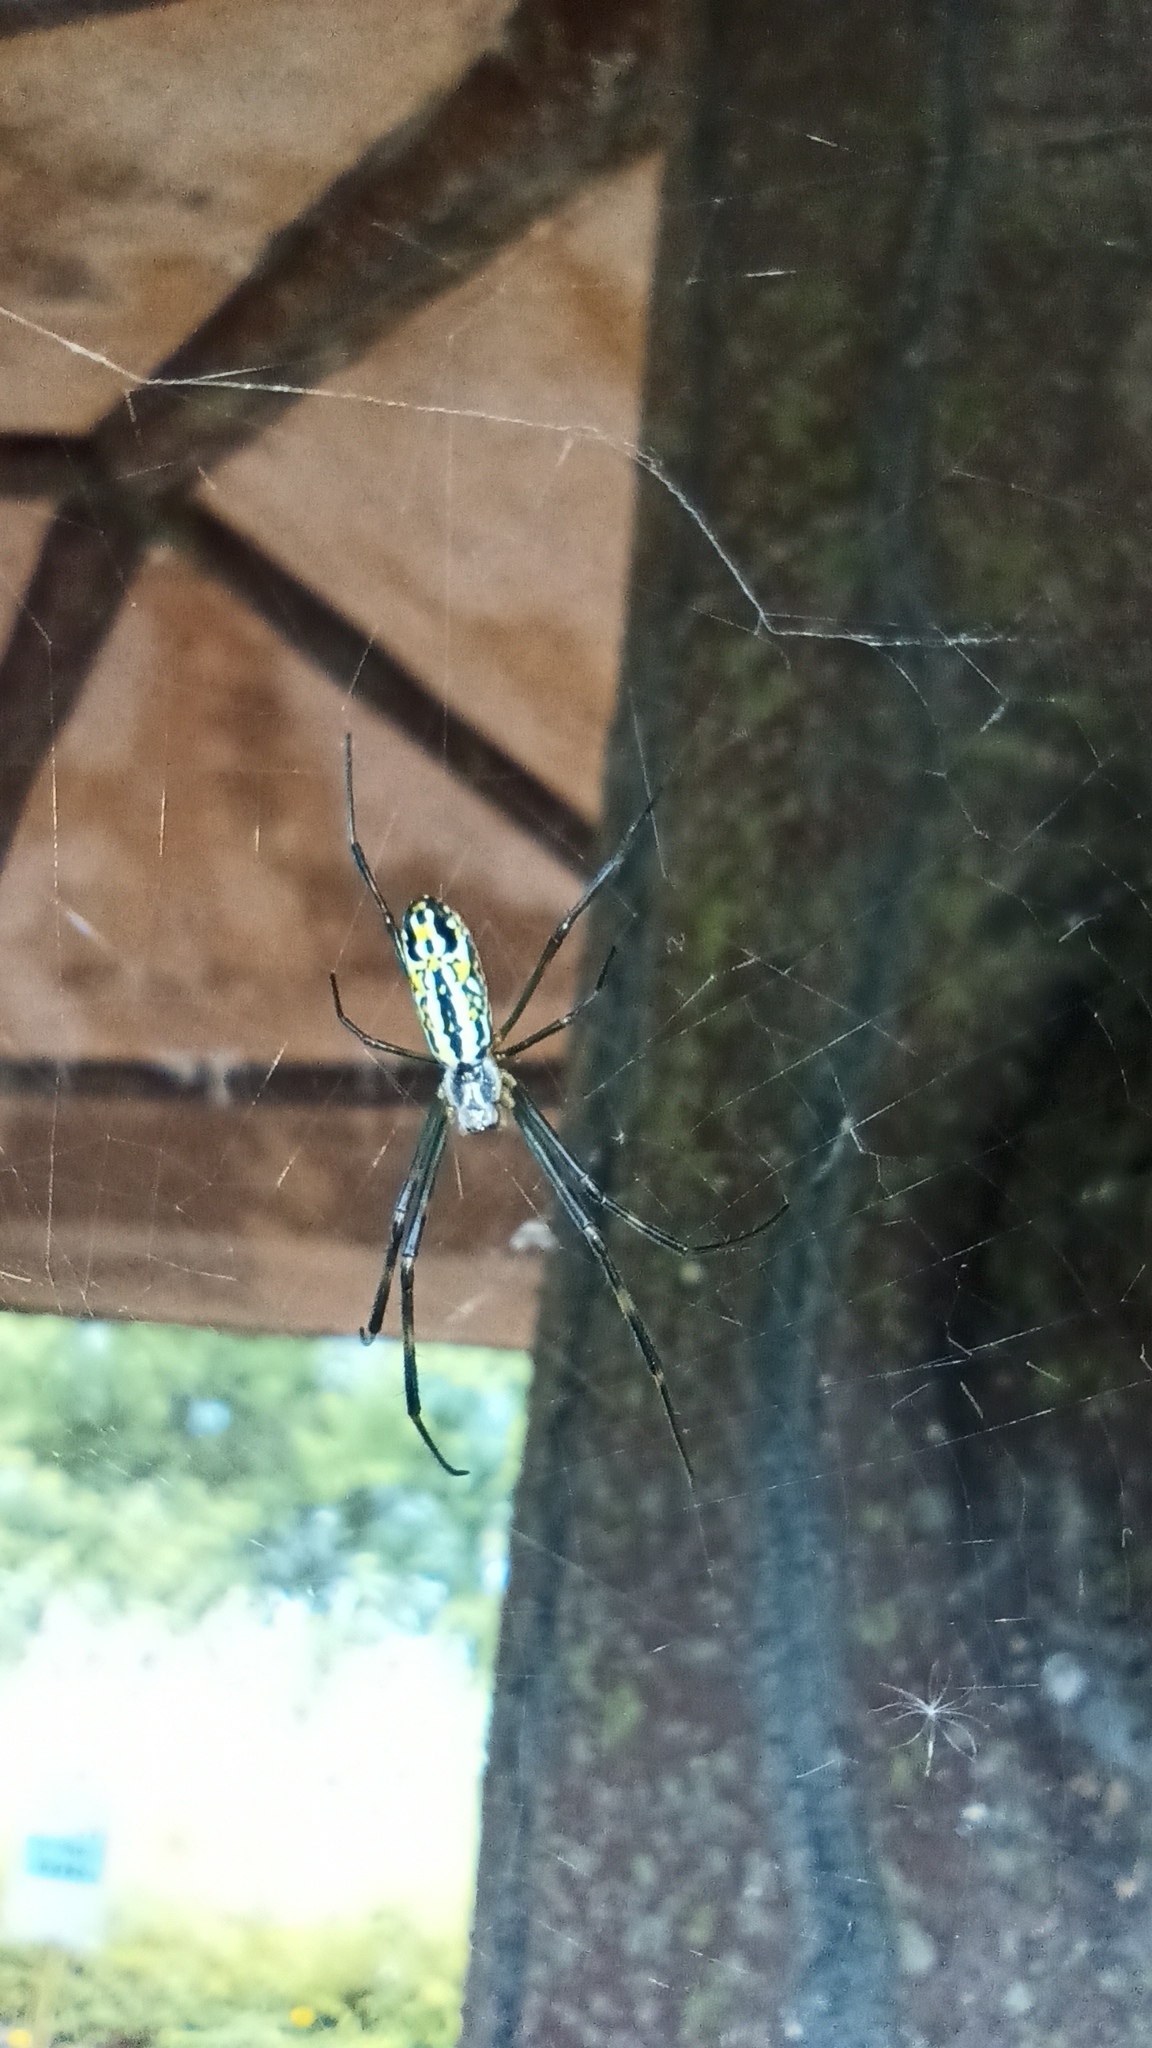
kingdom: Animalia
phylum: Arthropoda
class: Arachnida
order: Araneae
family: Araneidae
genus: Trichonephila
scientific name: Trichonephila clavata
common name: Jorō spider
